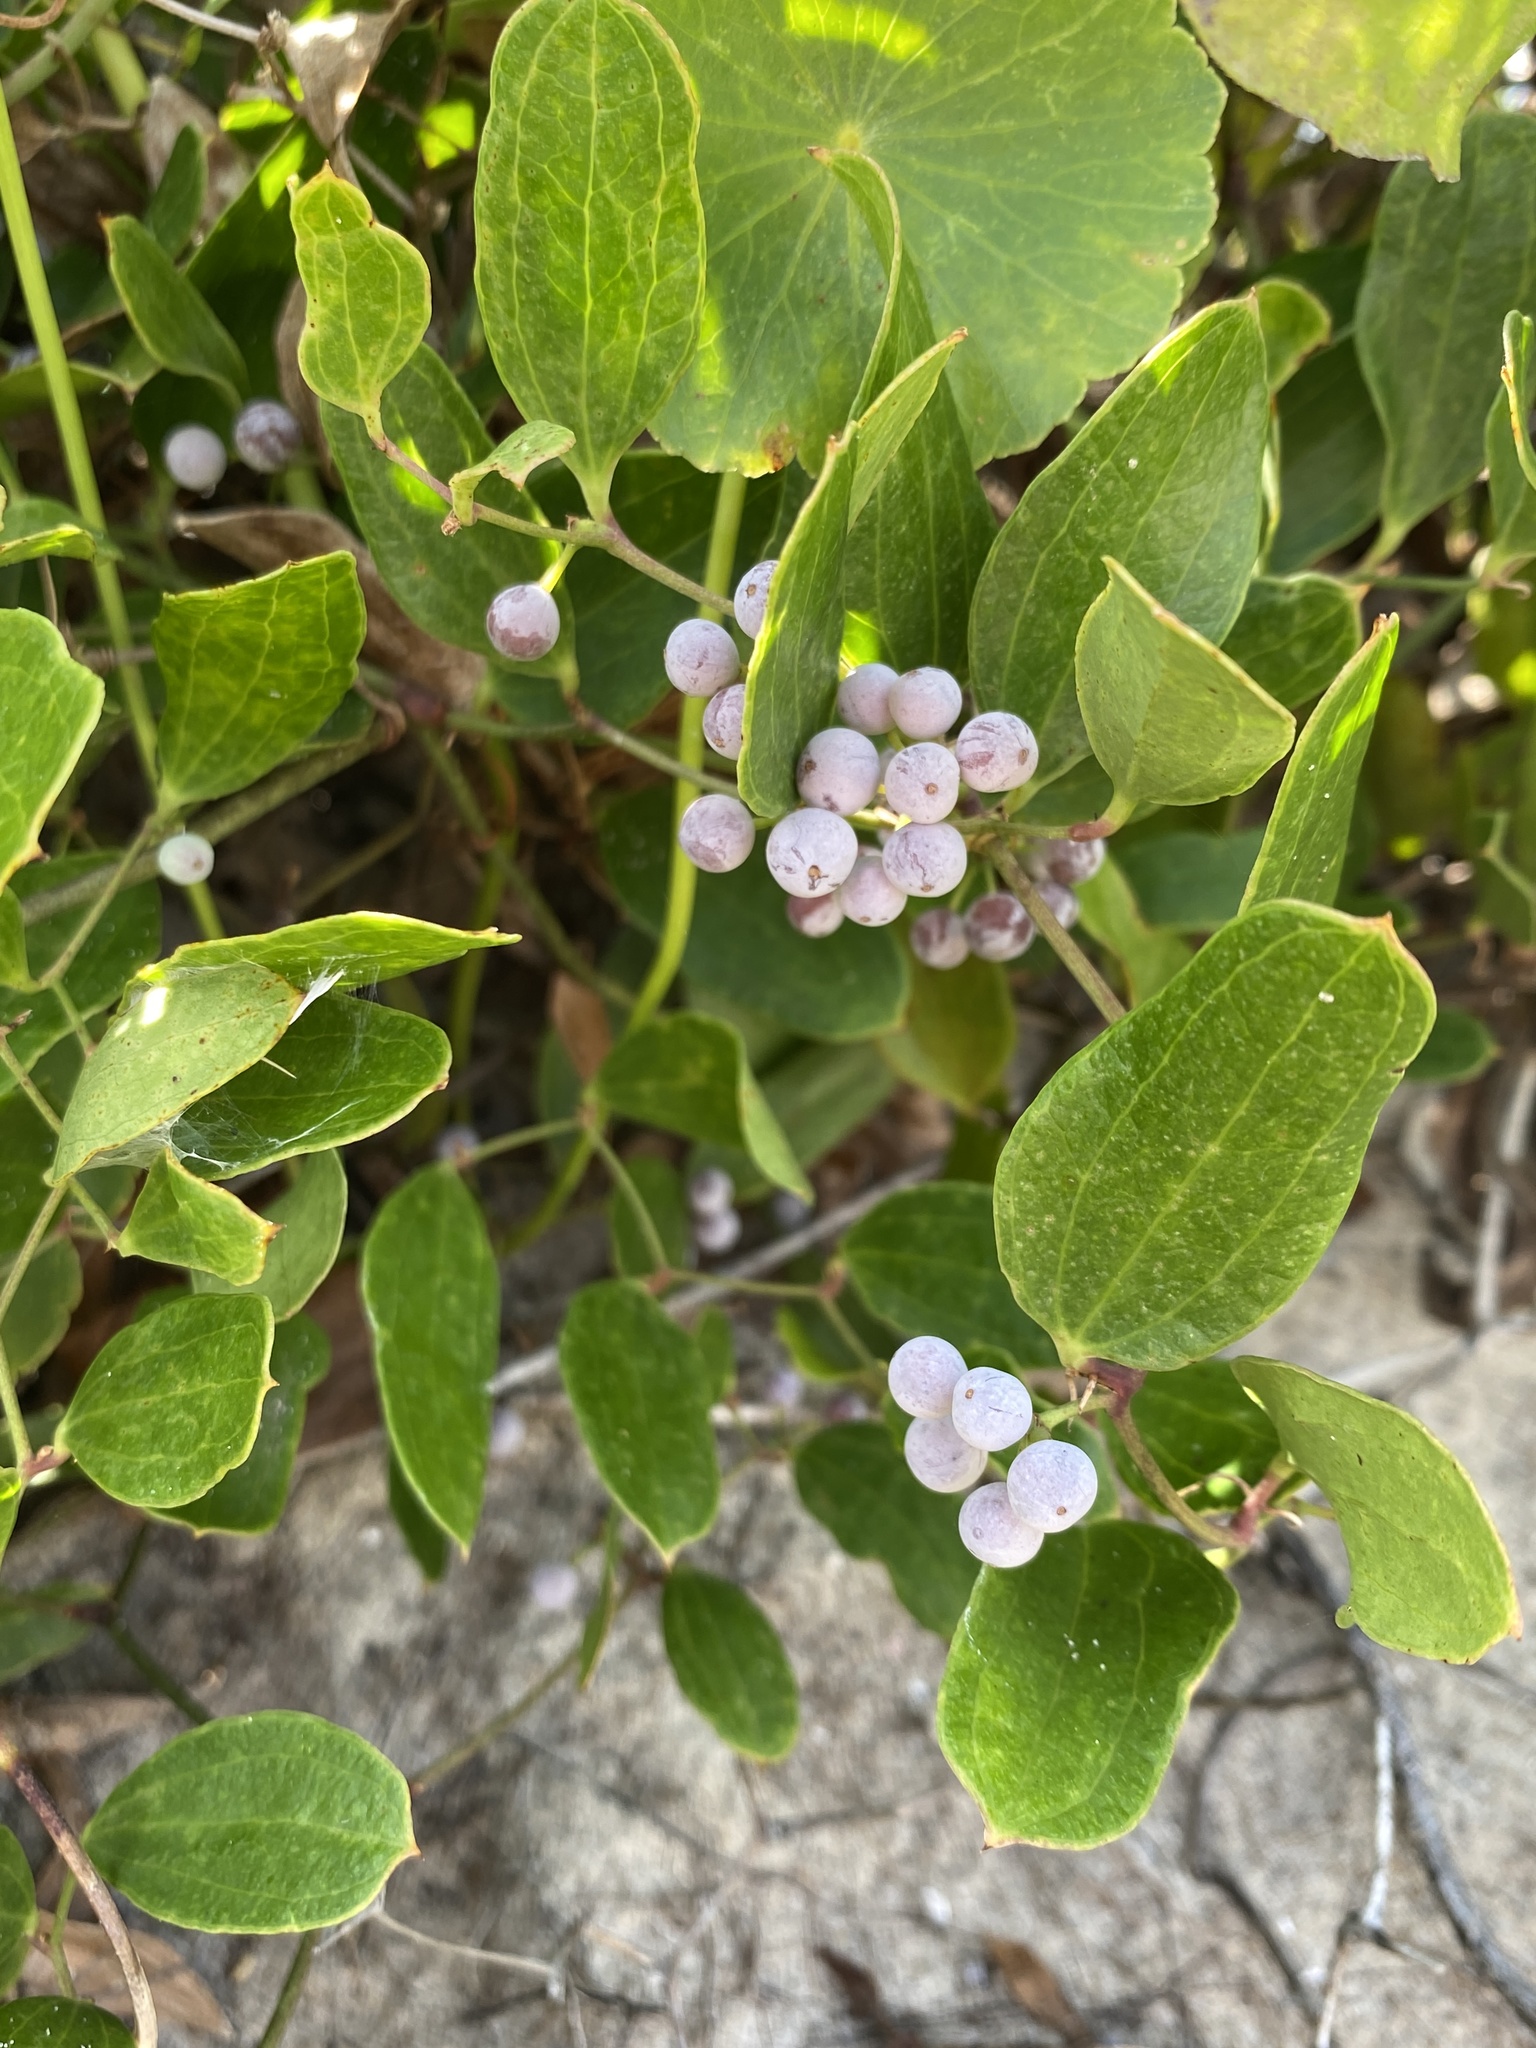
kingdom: Plantae
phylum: Tracheophyta
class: Liliopsida
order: Liliales
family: Smilacaceae
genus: Smilax
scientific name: Smilax auriculata
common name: Wild bamboo
